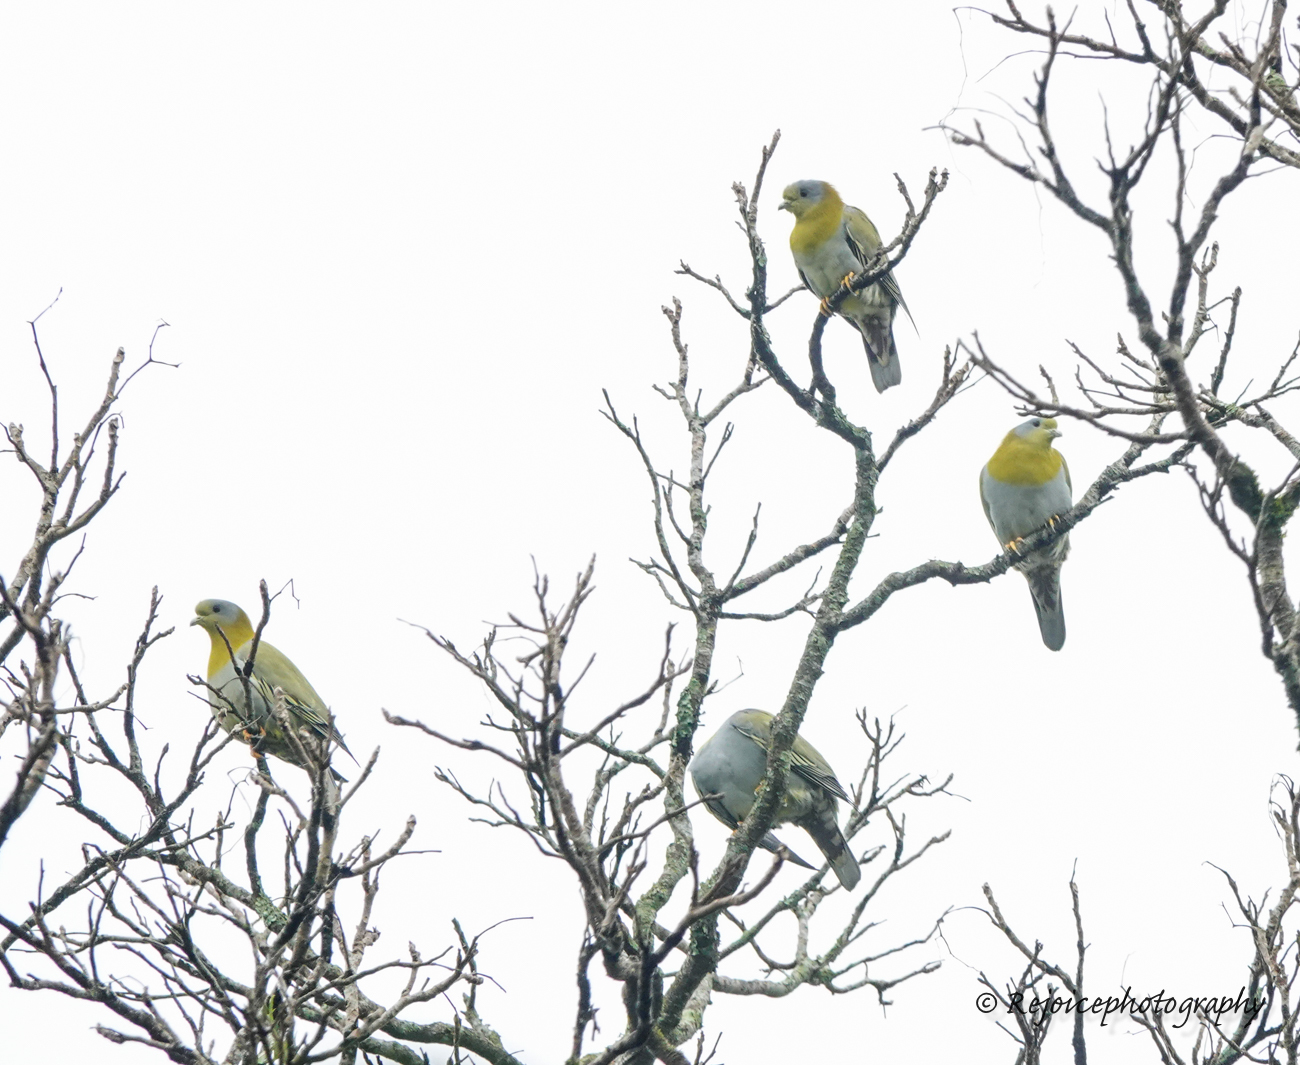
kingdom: Animalia
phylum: Chordata
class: Aves
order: Columbiformes
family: Columbidae
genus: Treron
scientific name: Treron phoenicopterus
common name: Yellow-footed green pigeon
